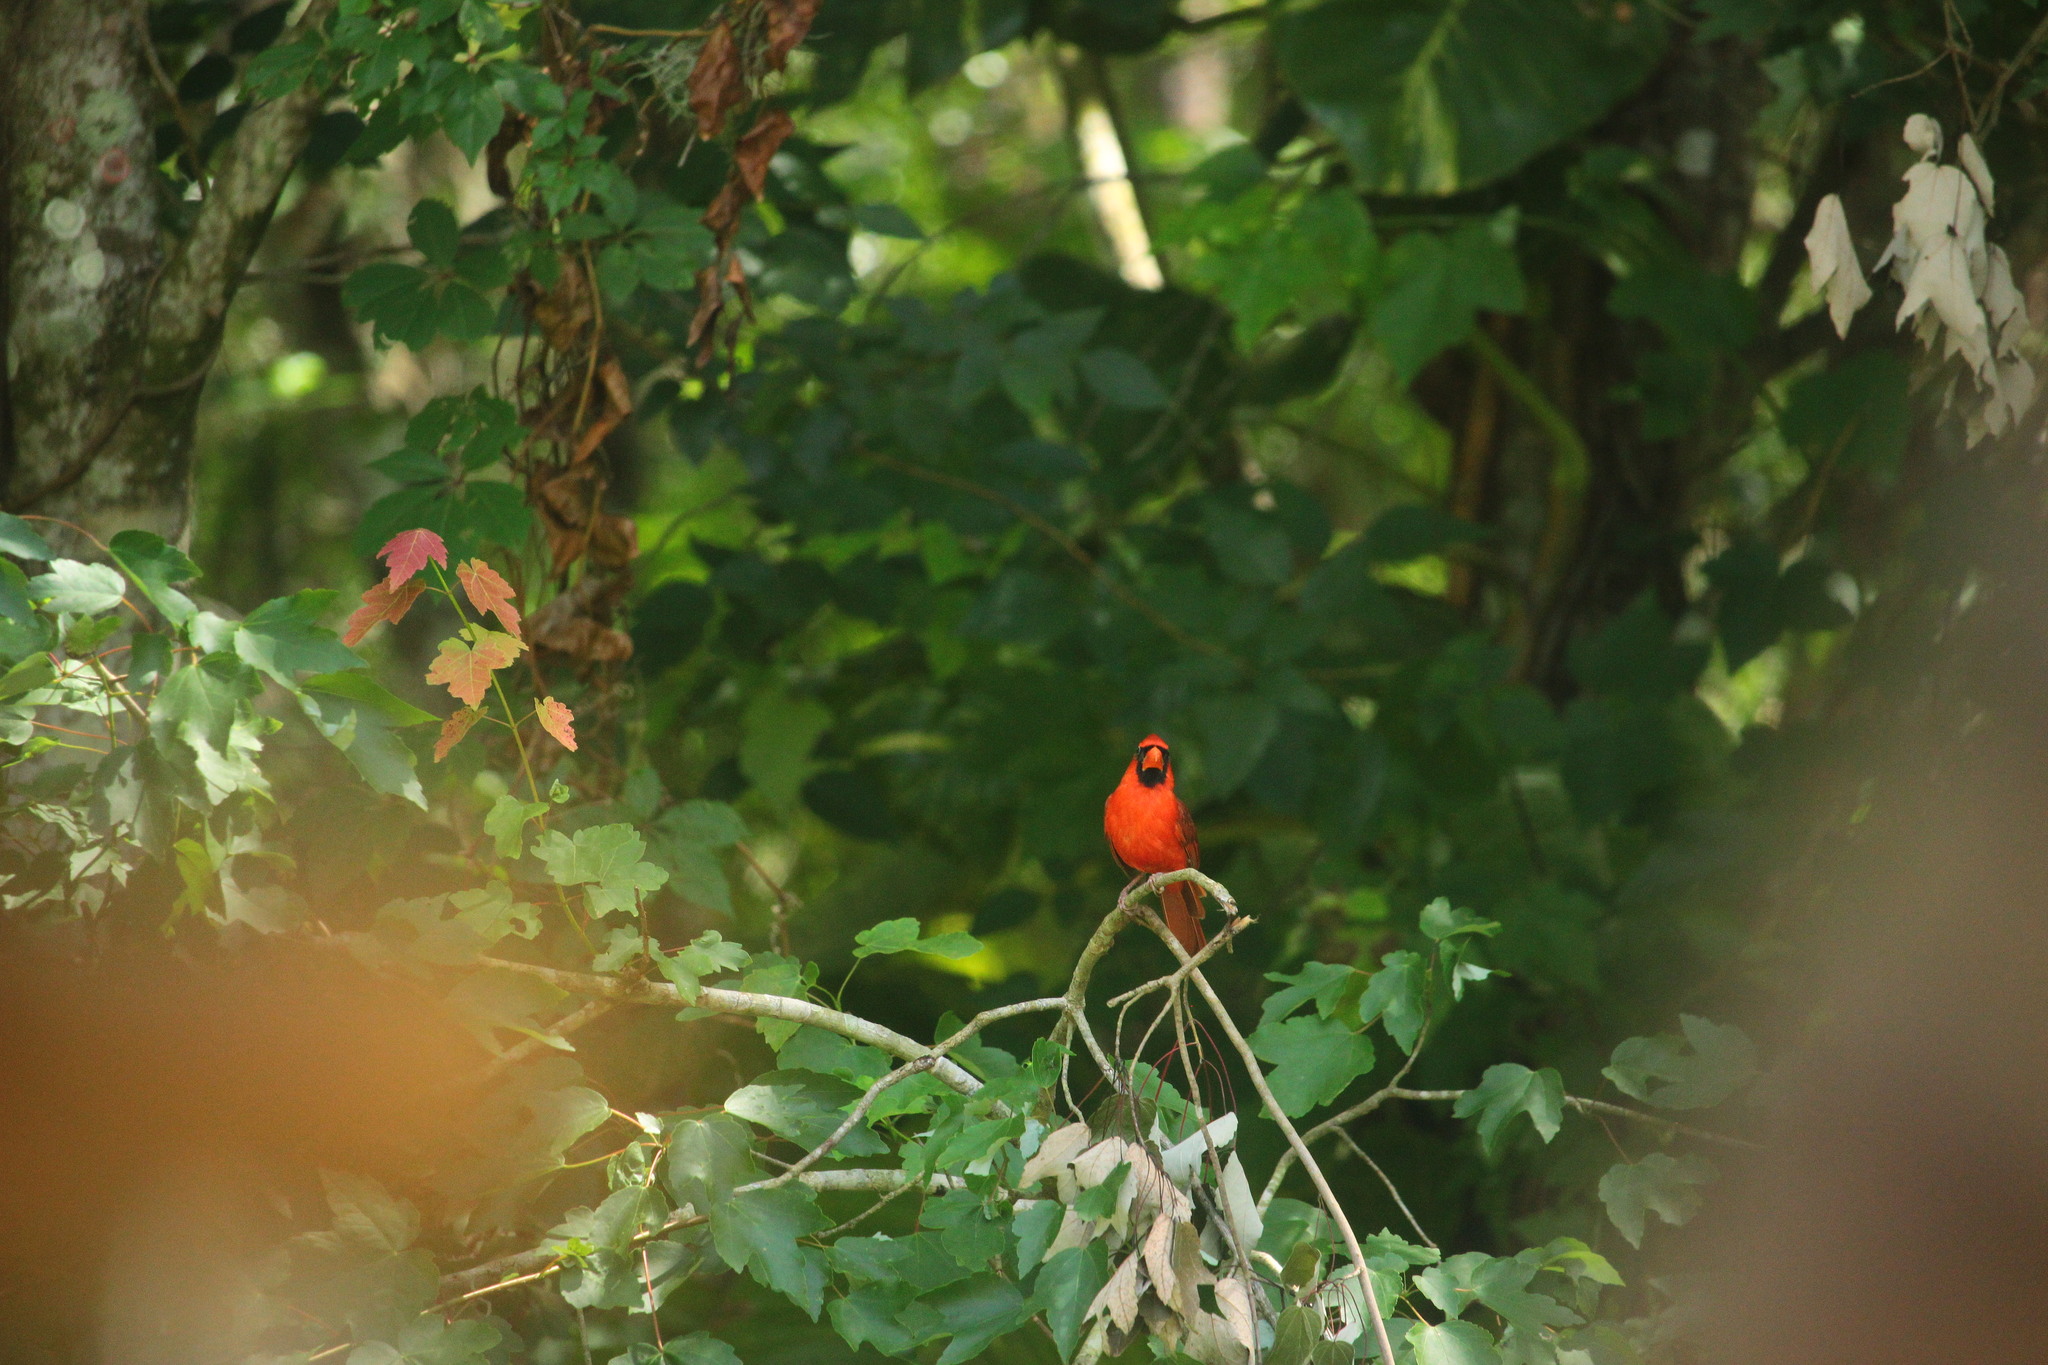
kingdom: Animalia
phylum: Chordata
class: Aves
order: Passeriformes
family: Cardinalidae
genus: Cardinalis
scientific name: Cardinalis cardinalis
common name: Northern cardinal
